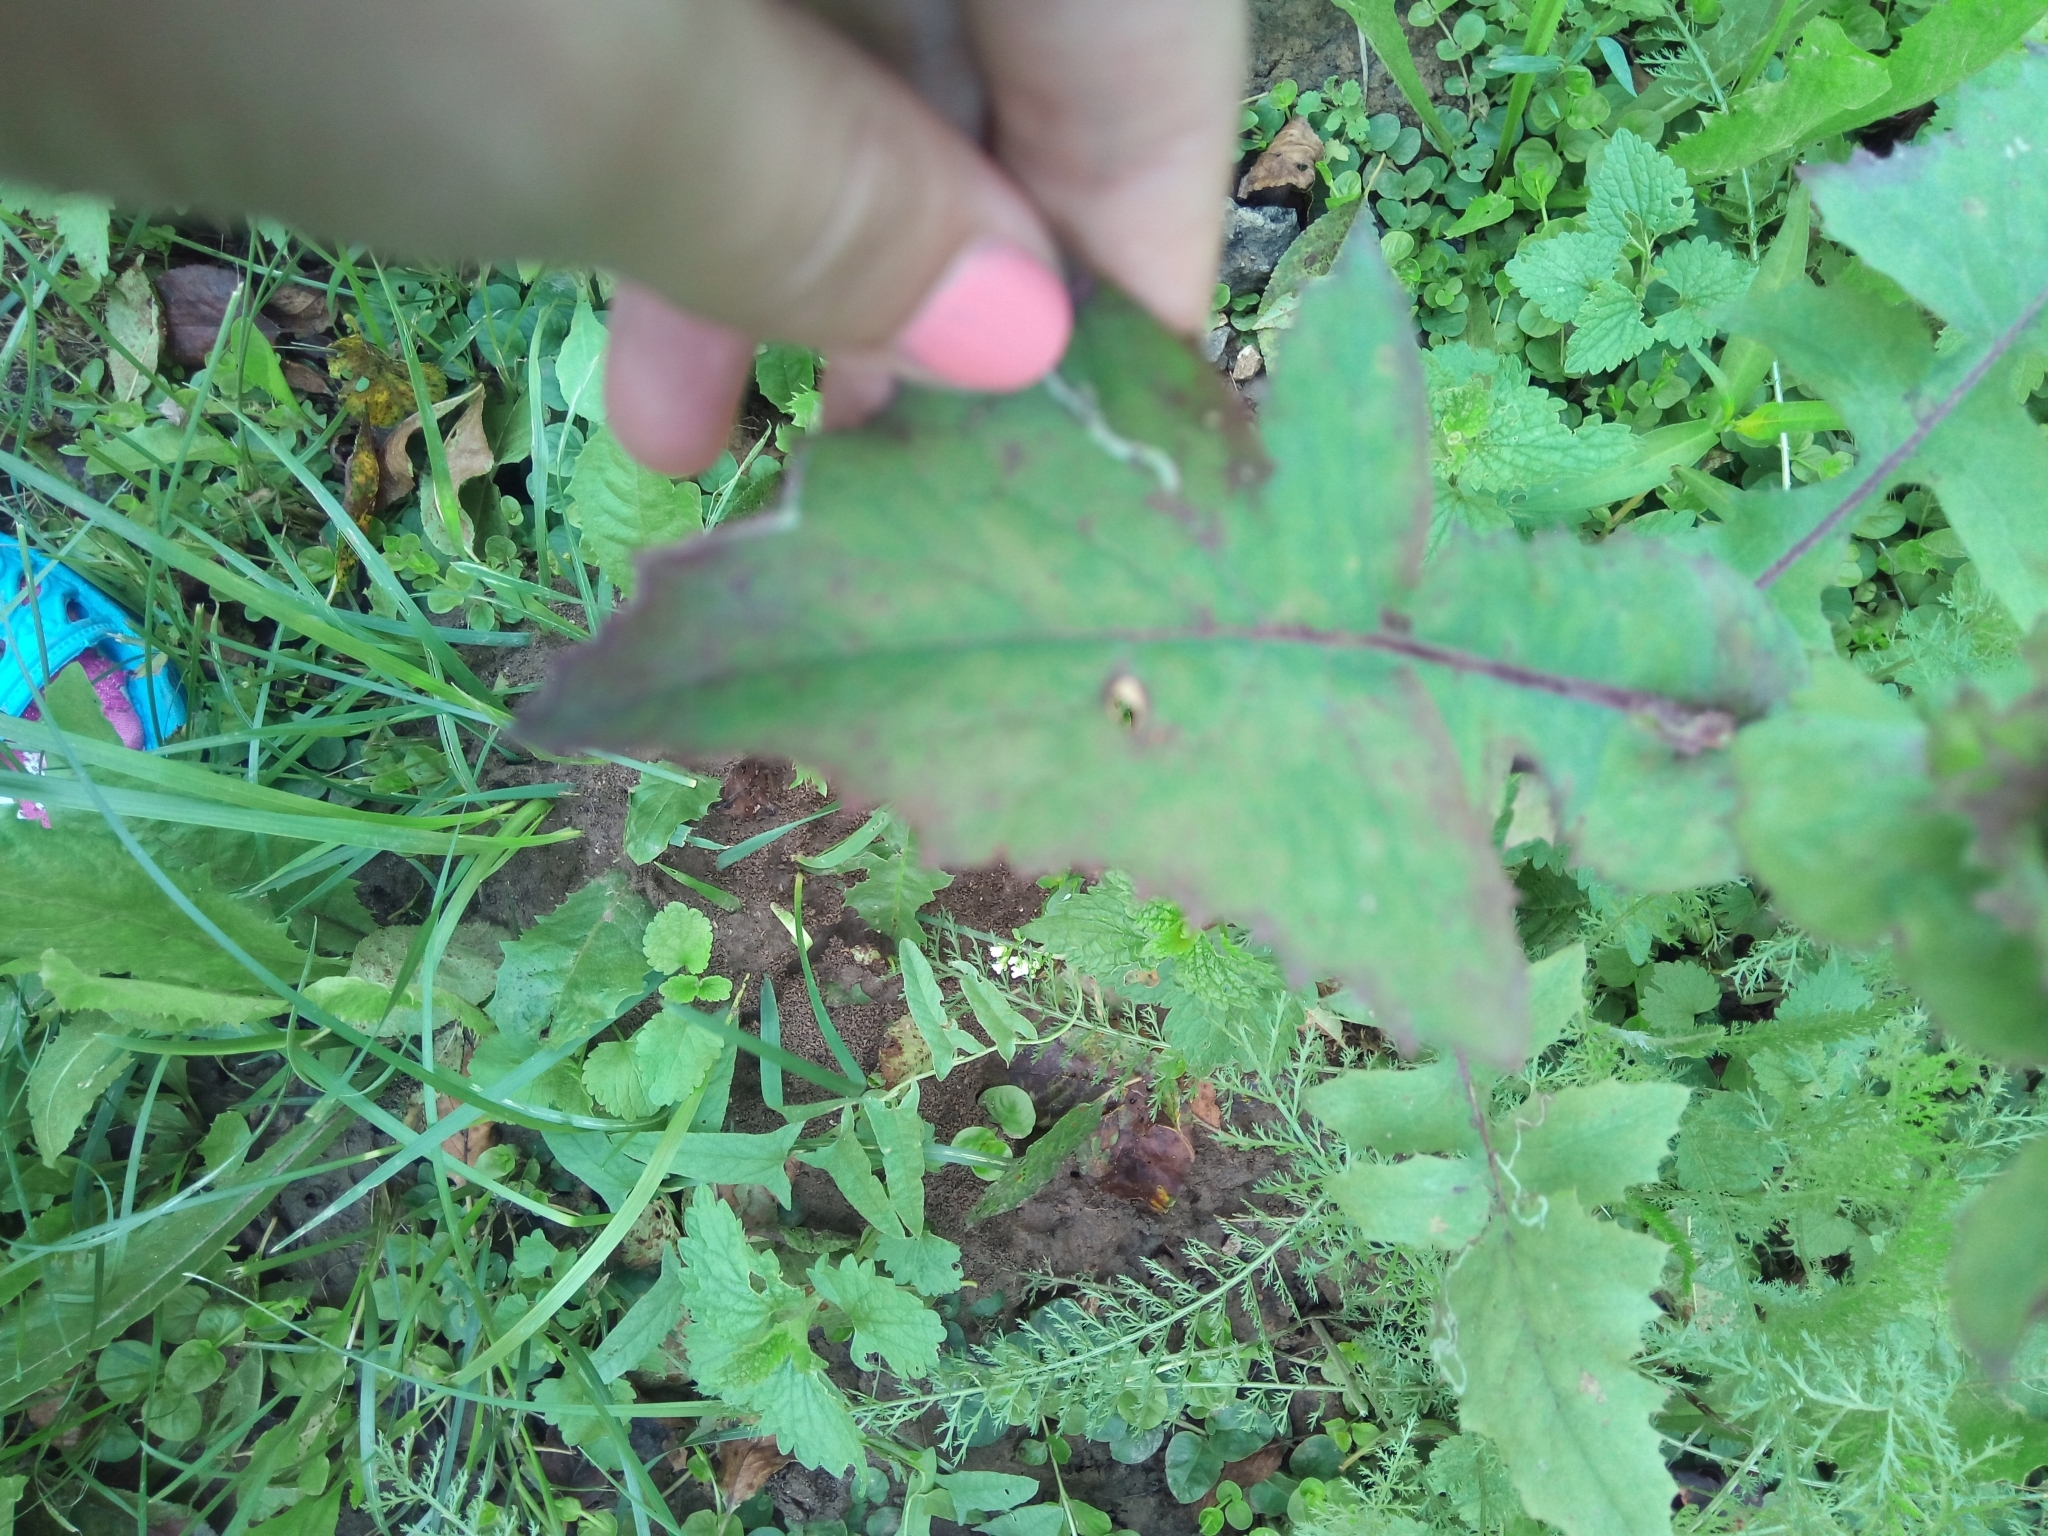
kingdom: Plantae
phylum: Tracheophyta
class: Magnoliopsida
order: Asterales
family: Asteraceae
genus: Sonchus
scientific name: Sonchus oleraceus
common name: Common sowthistle
